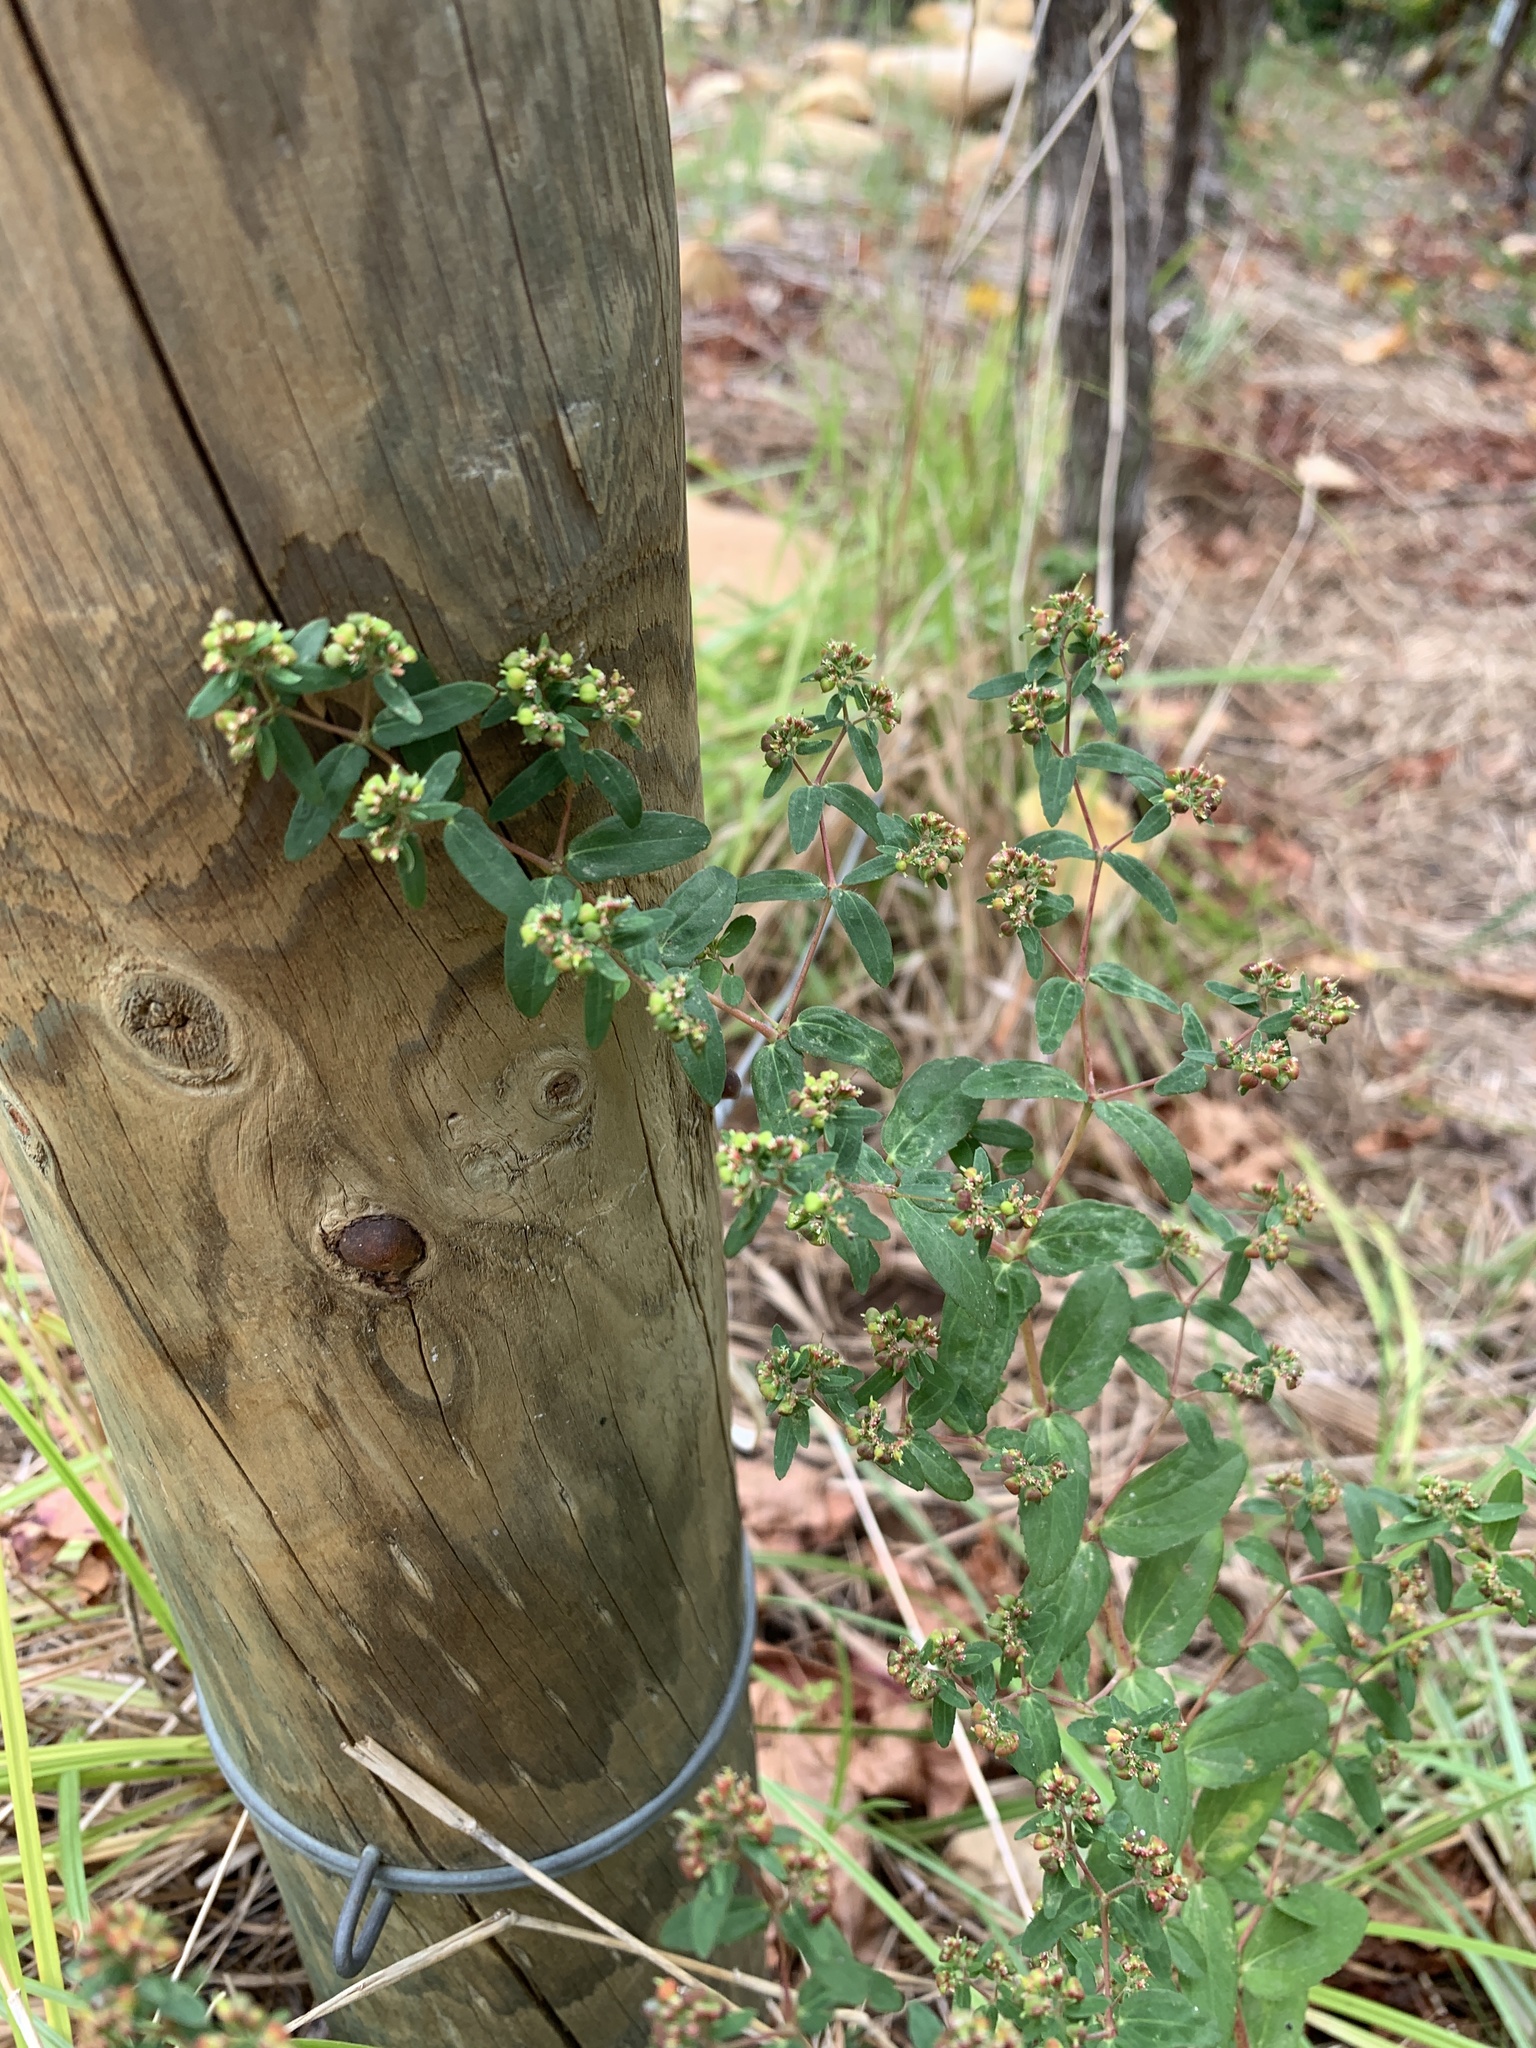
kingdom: Plantae
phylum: Tracheophyta
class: Magnoliopsida
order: Malpighiales
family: Euphorbiaceae
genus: Euphorbia
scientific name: Euphorbia nutans
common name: Eyebane
